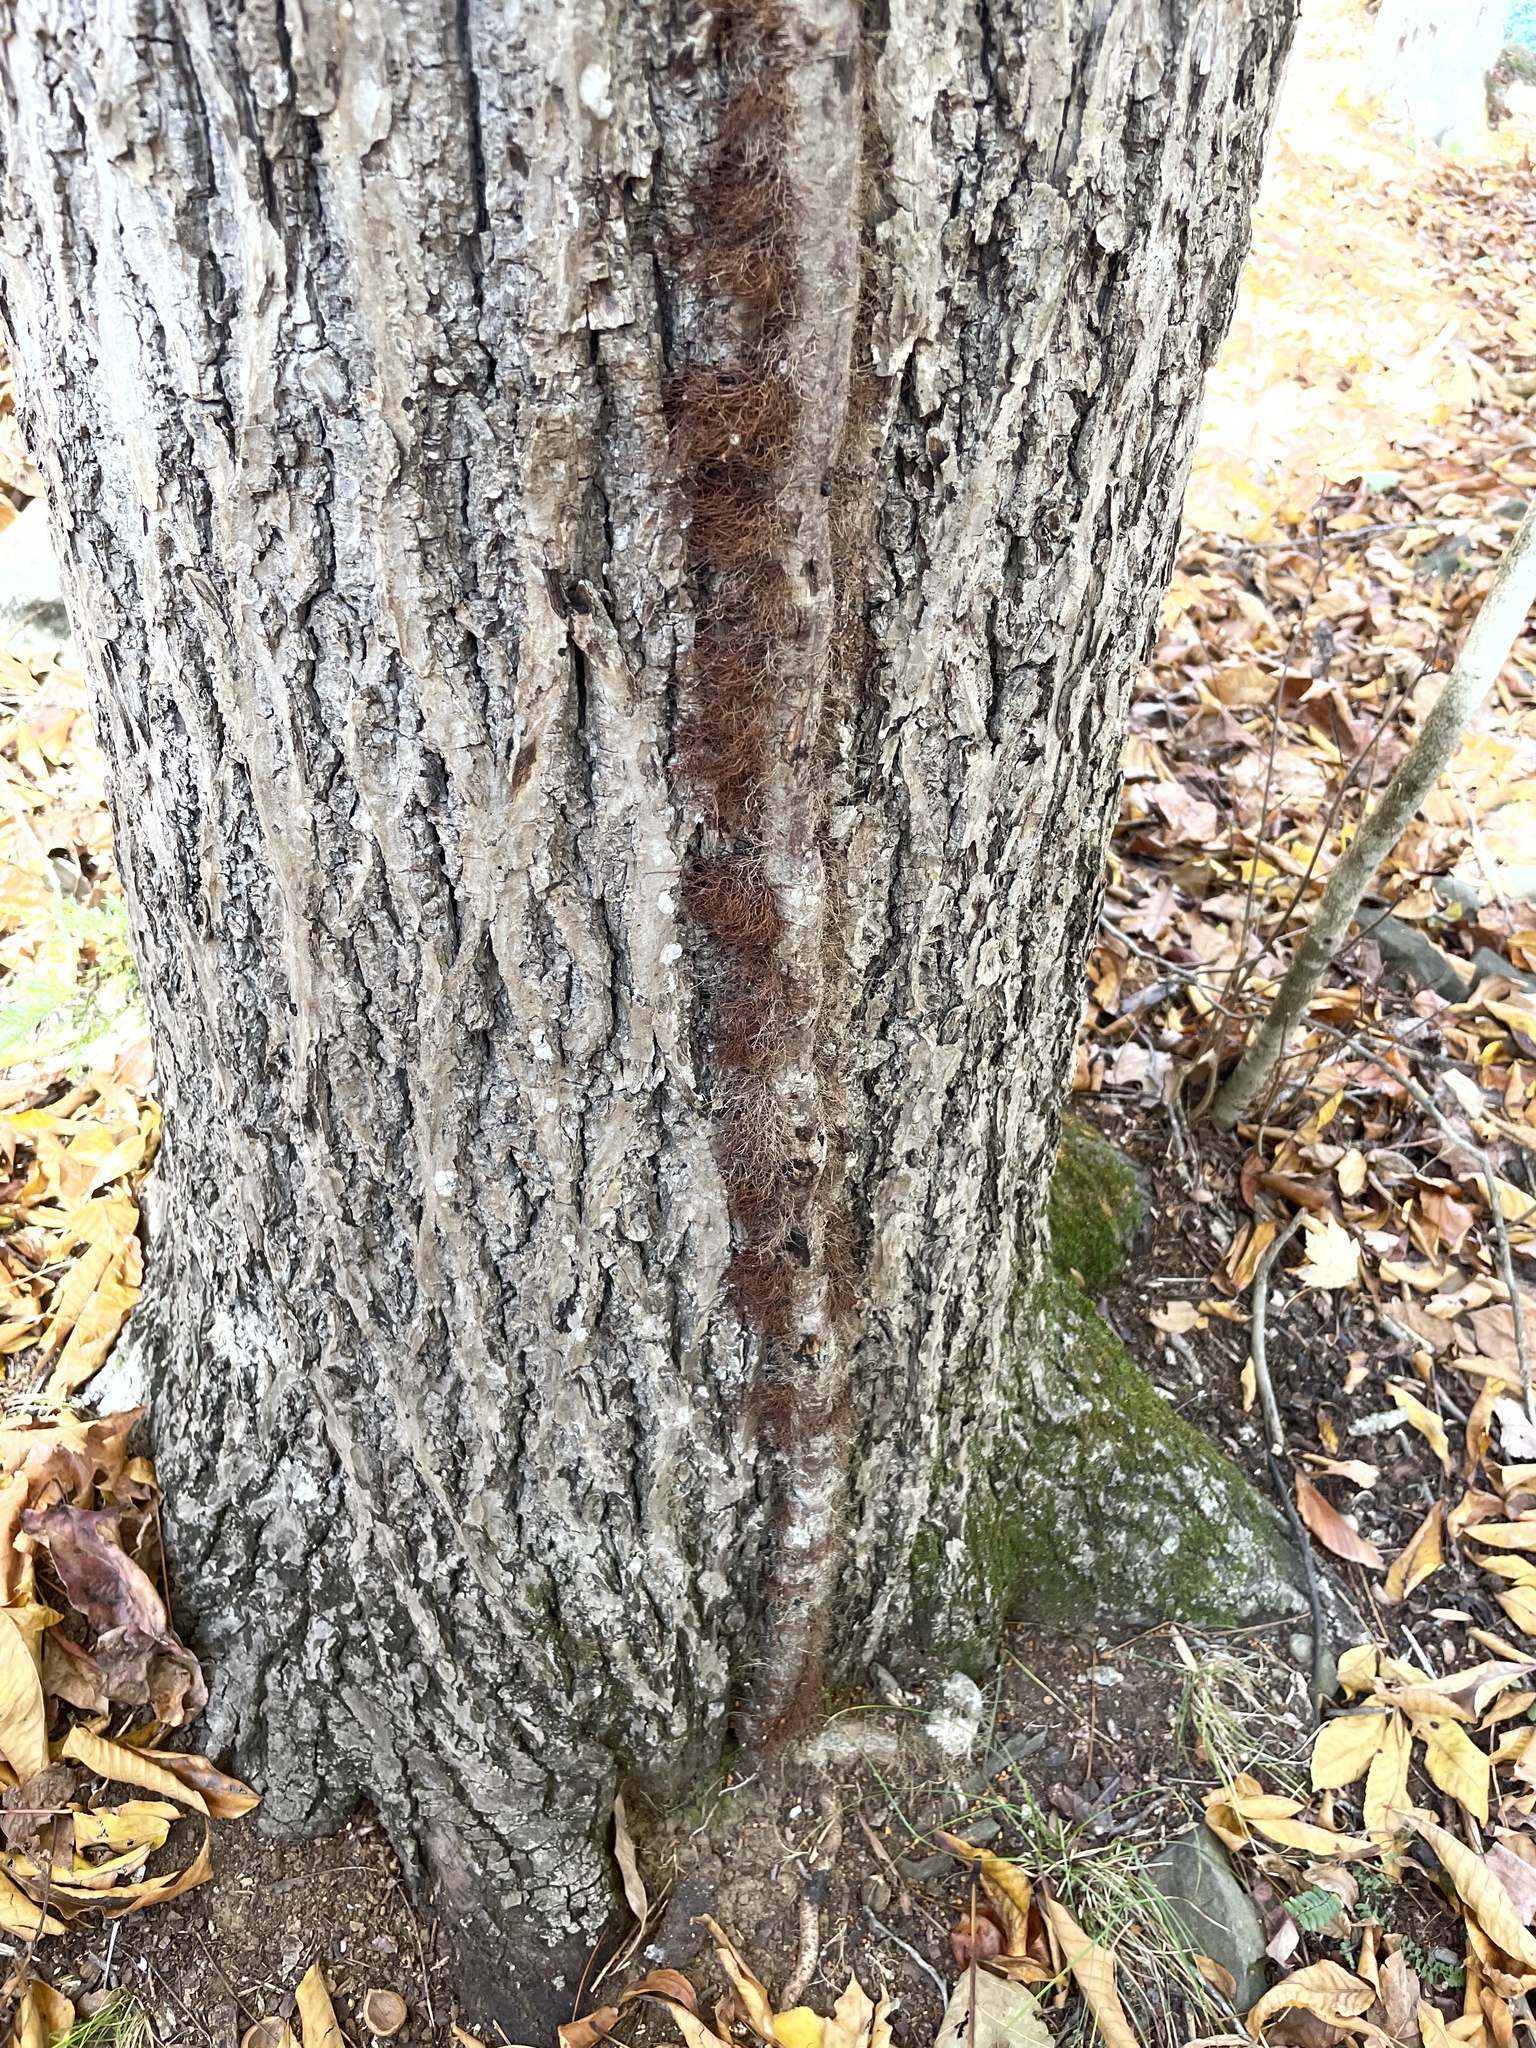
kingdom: Plantae
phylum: Tracheophyta
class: Magnoliopsida
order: Sapindales
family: Anacardiaceae
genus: Toxicodendron
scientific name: Toxicodendron radicans
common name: Poison ivy
